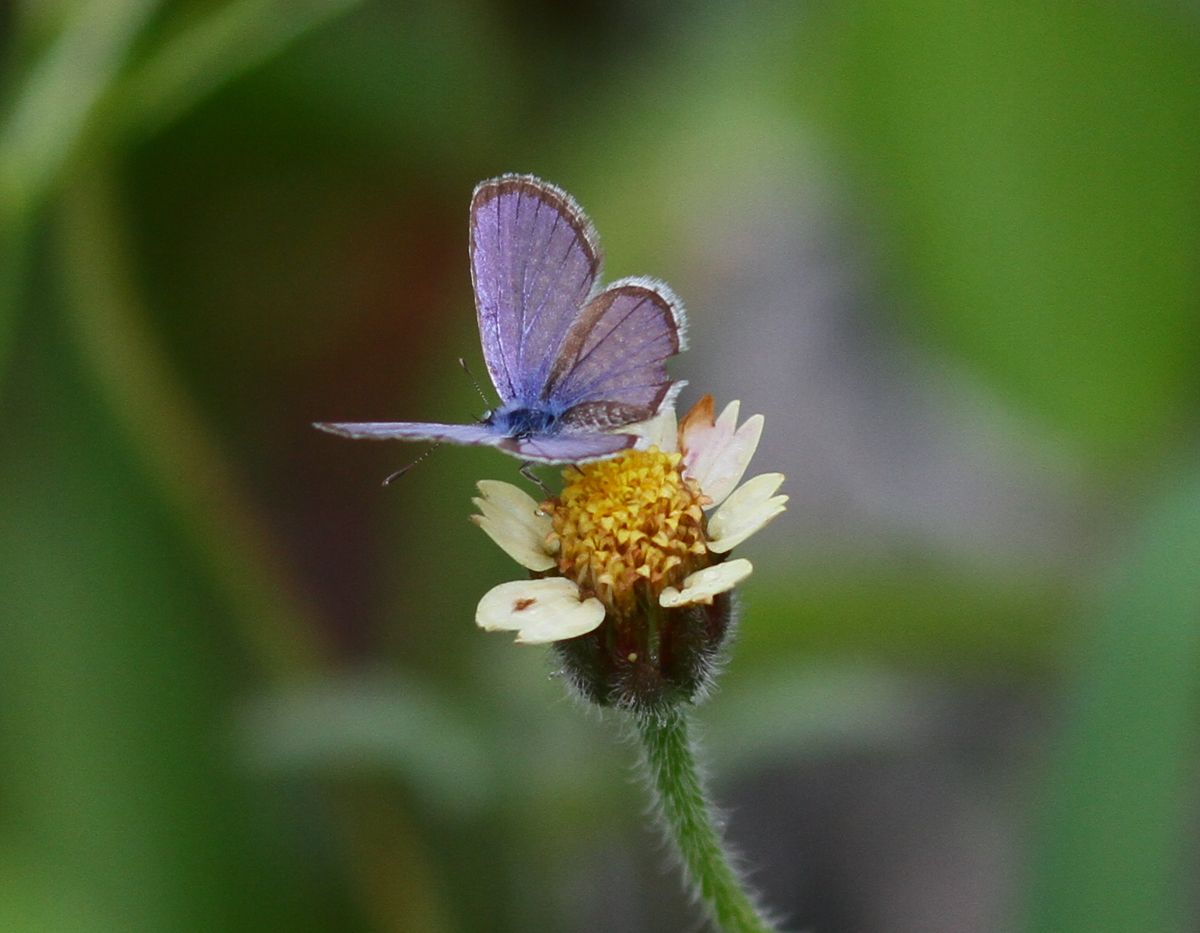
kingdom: Animalia
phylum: Arthropoda
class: Insecta
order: Lepidoptera
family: Lycaenidae
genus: Hemiargus
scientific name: Hemiargus hanno
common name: Common blue
